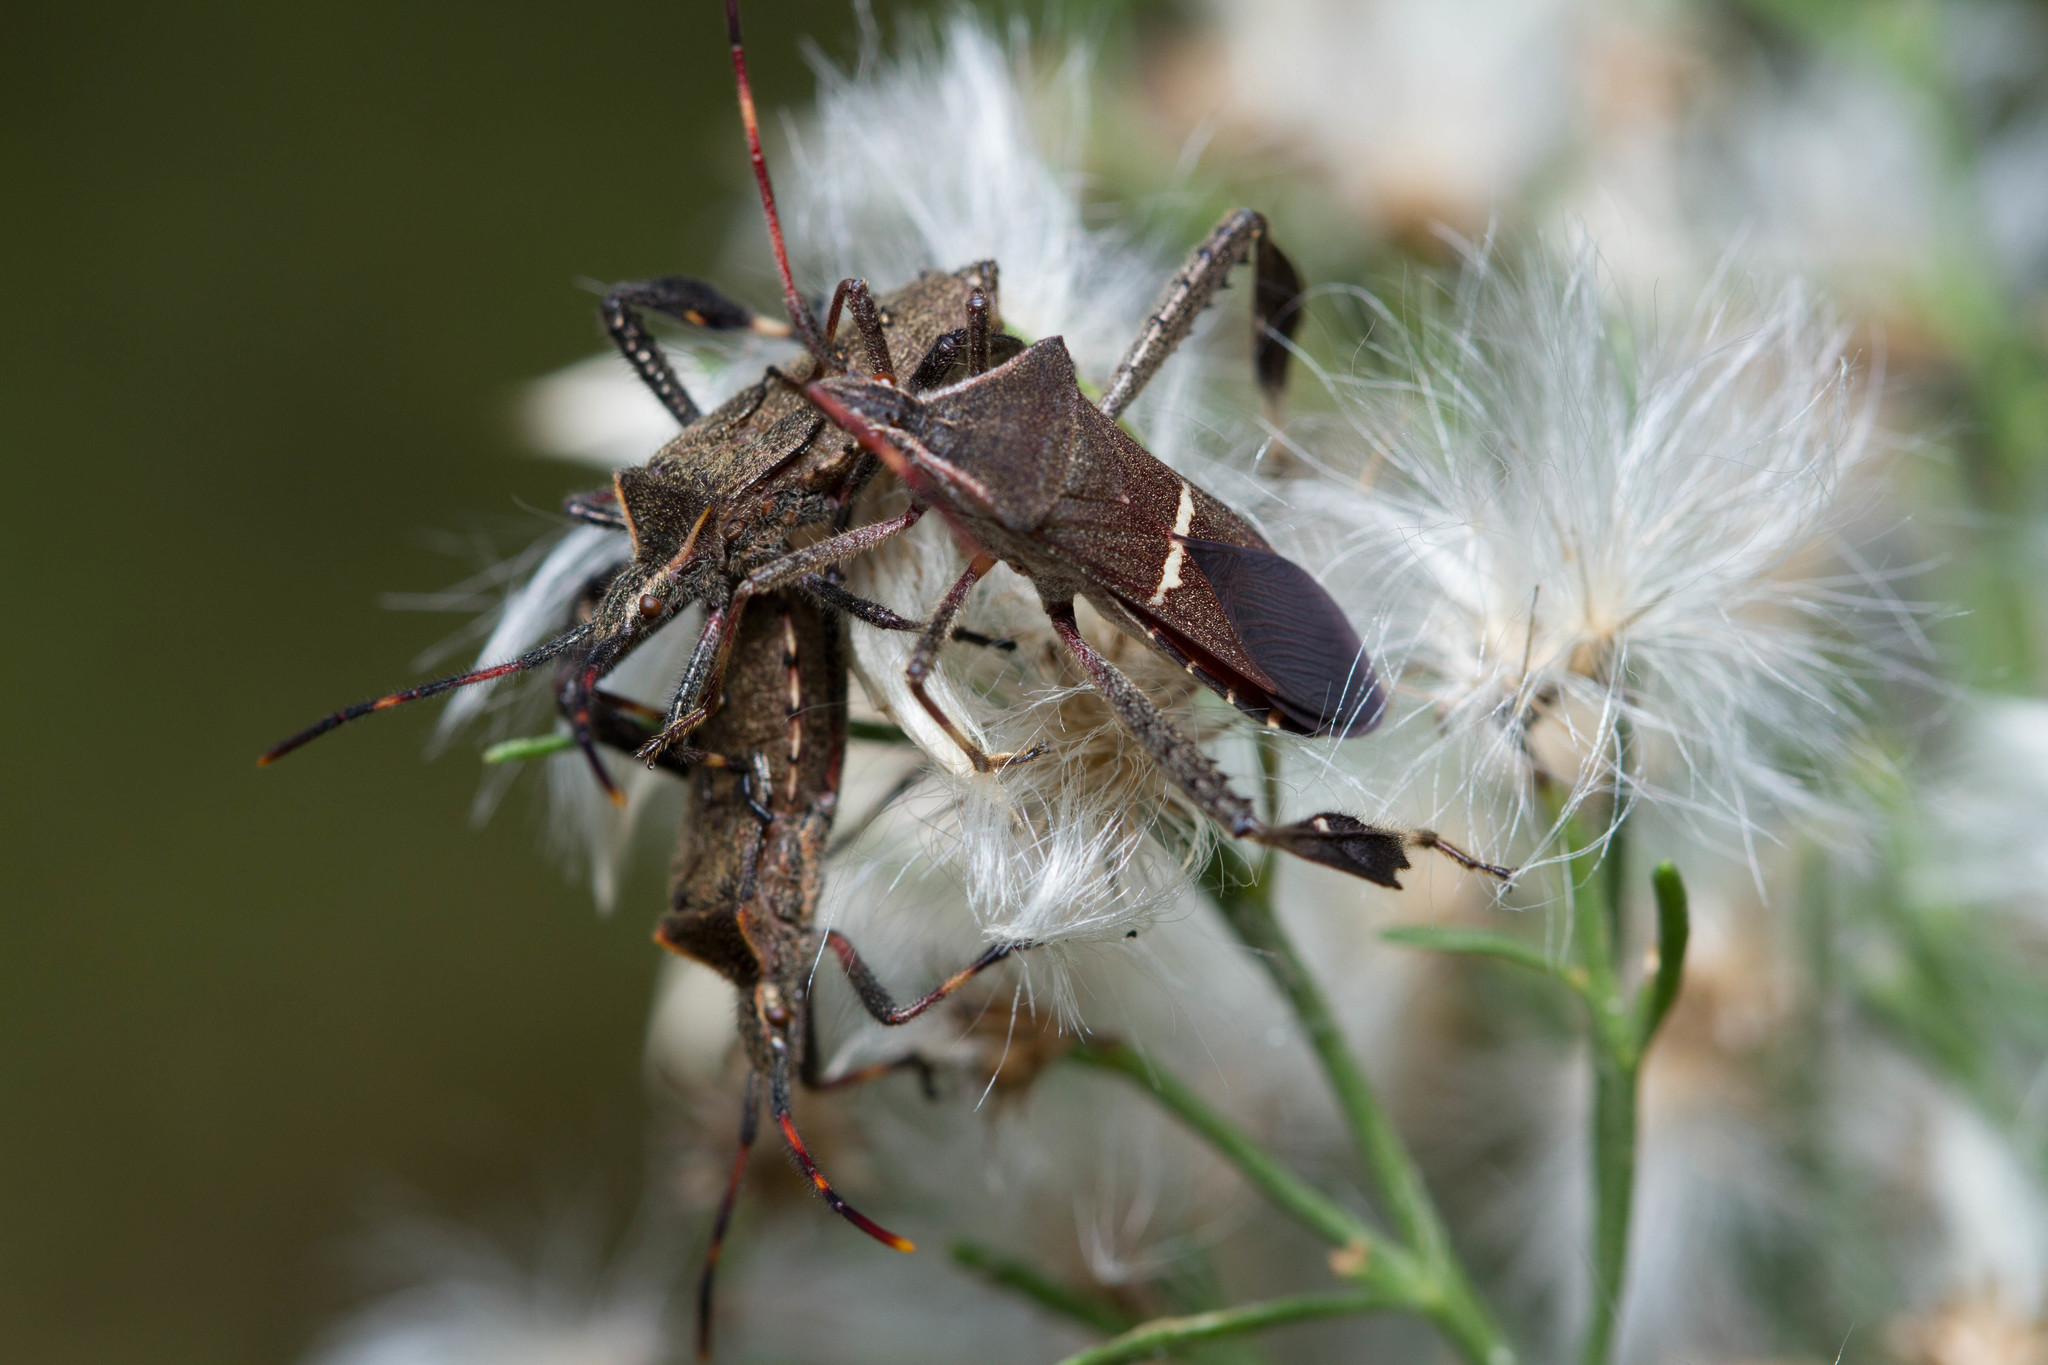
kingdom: Animalia
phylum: Arthropoda
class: Insecta
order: Hemiptera
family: Coreidae
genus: Leptoglossus
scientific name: Leptoglossus phyllopus
